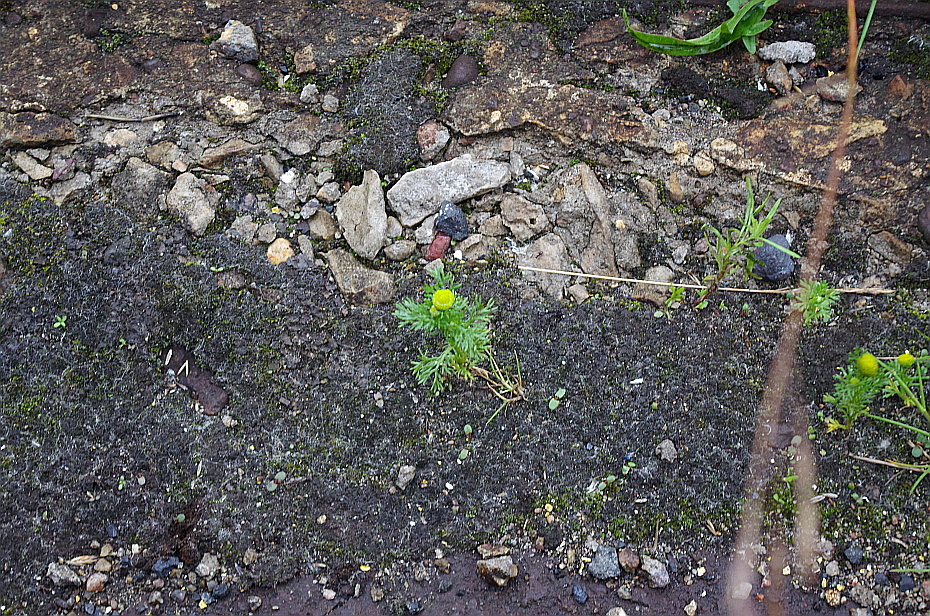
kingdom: Plantae
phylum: Tracheophyta
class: Magnoliopsida
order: Asterales
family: Asteraceae
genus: Matricaria
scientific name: Matricaria discoidea
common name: Disc mayweed
